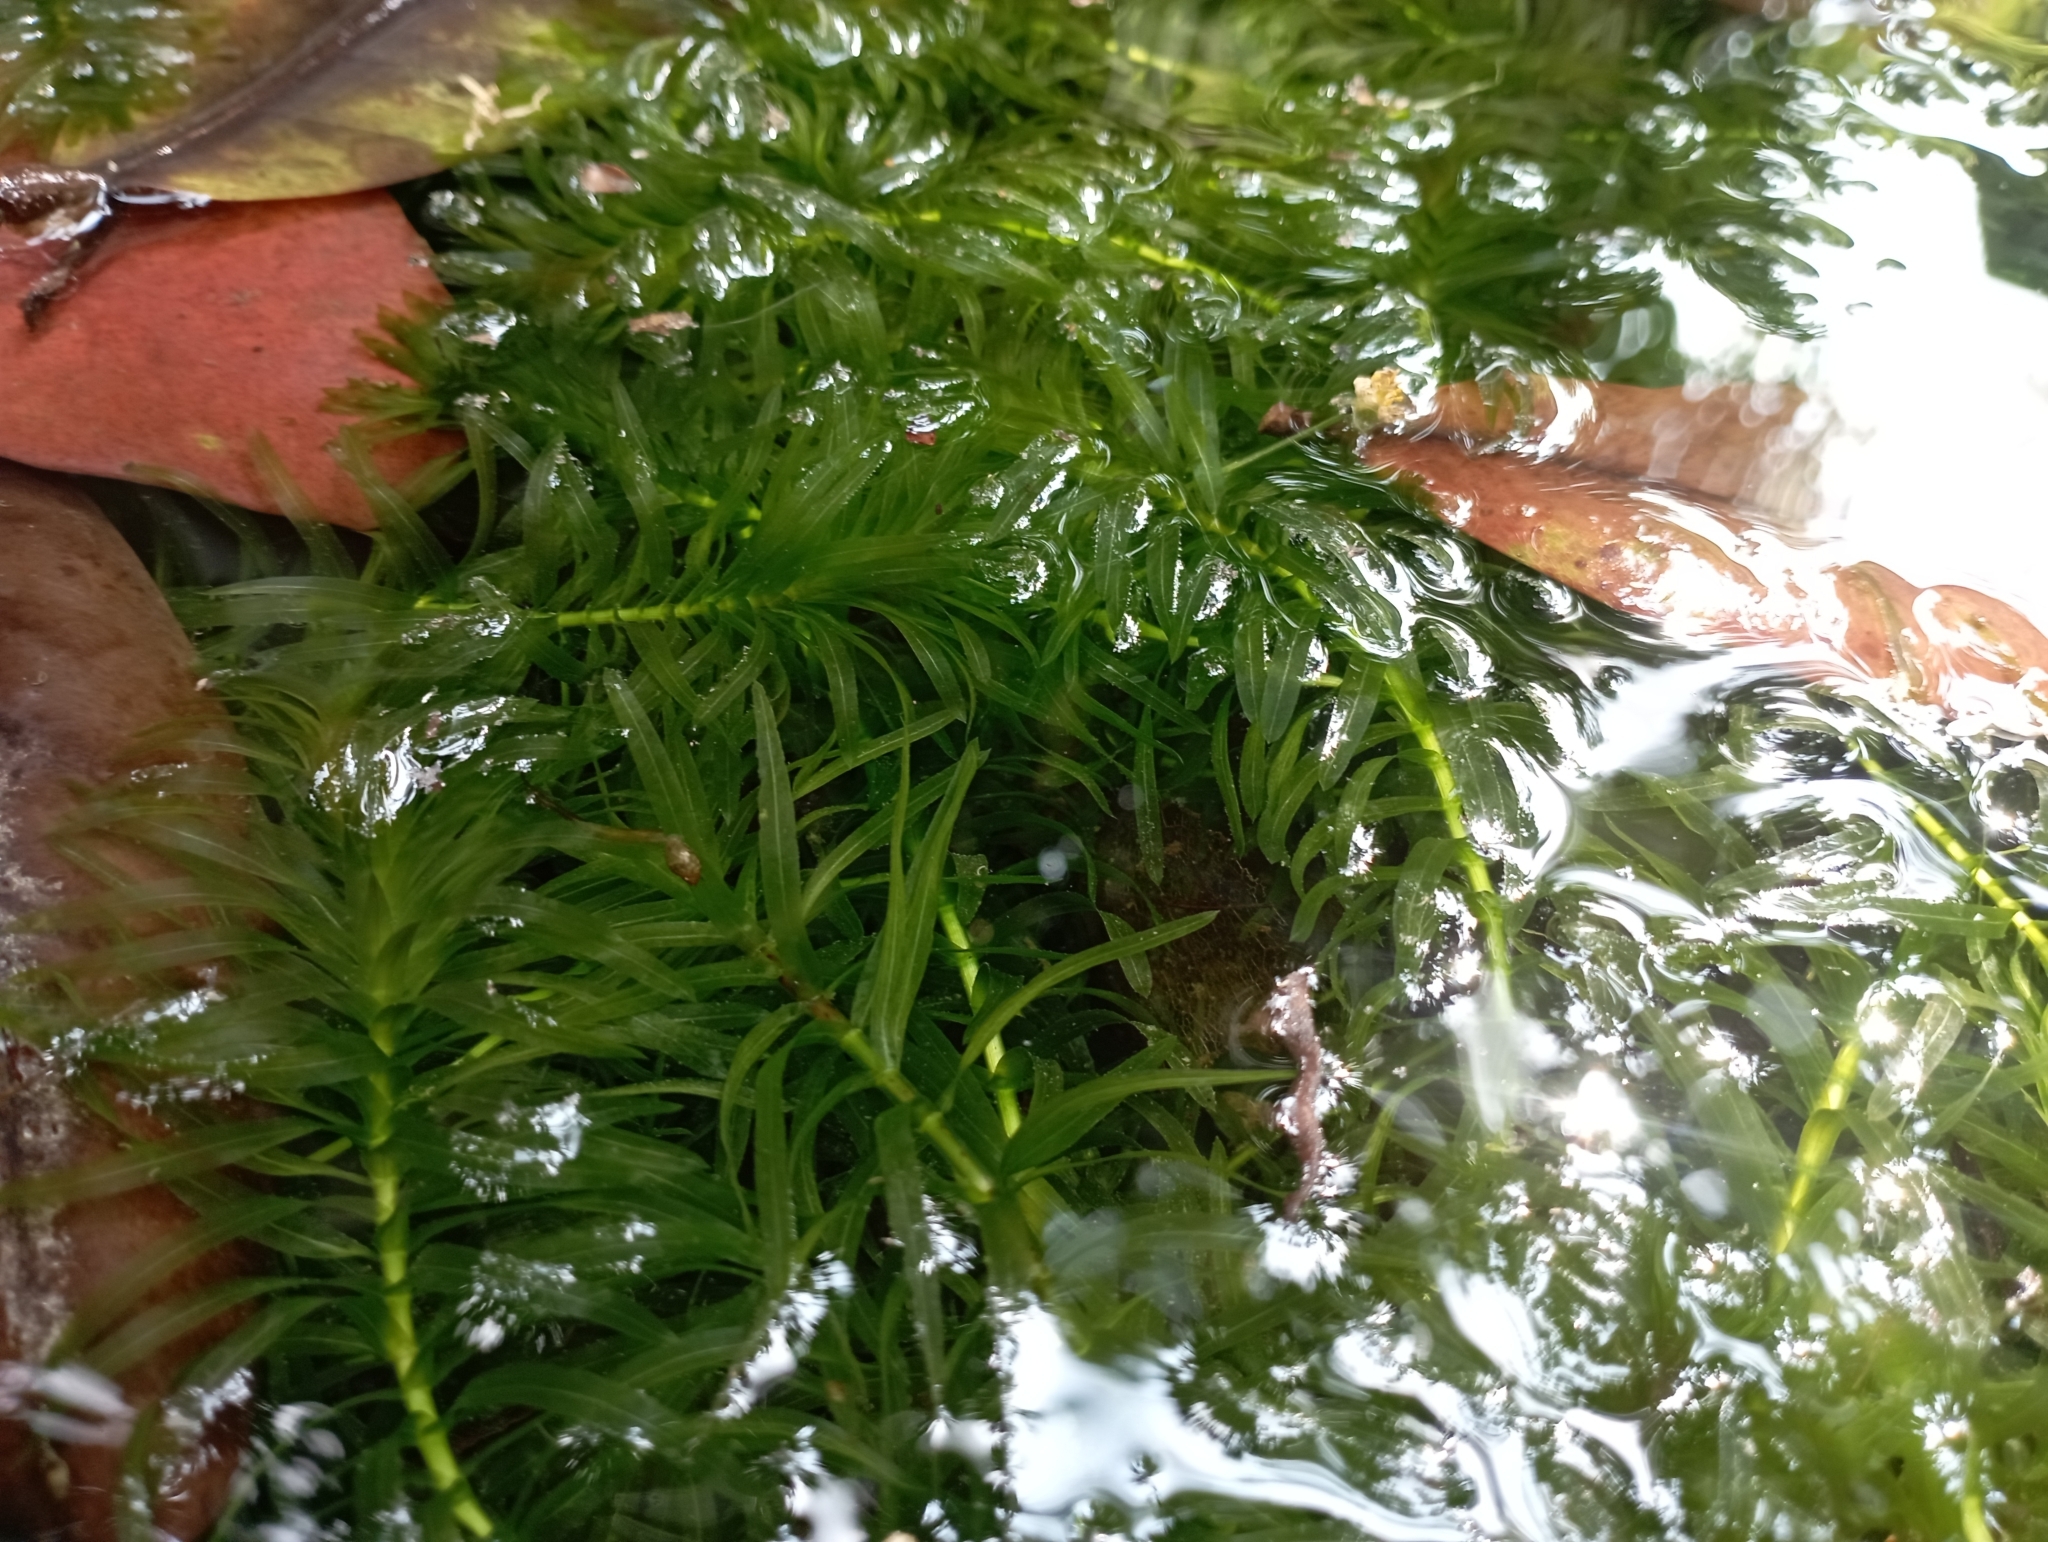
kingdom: Plantae
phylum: Tracheophyta
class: Liliopsida
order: Alismatales
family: Hydrocharitaceae
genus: Elodea
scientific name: Elodea densa
